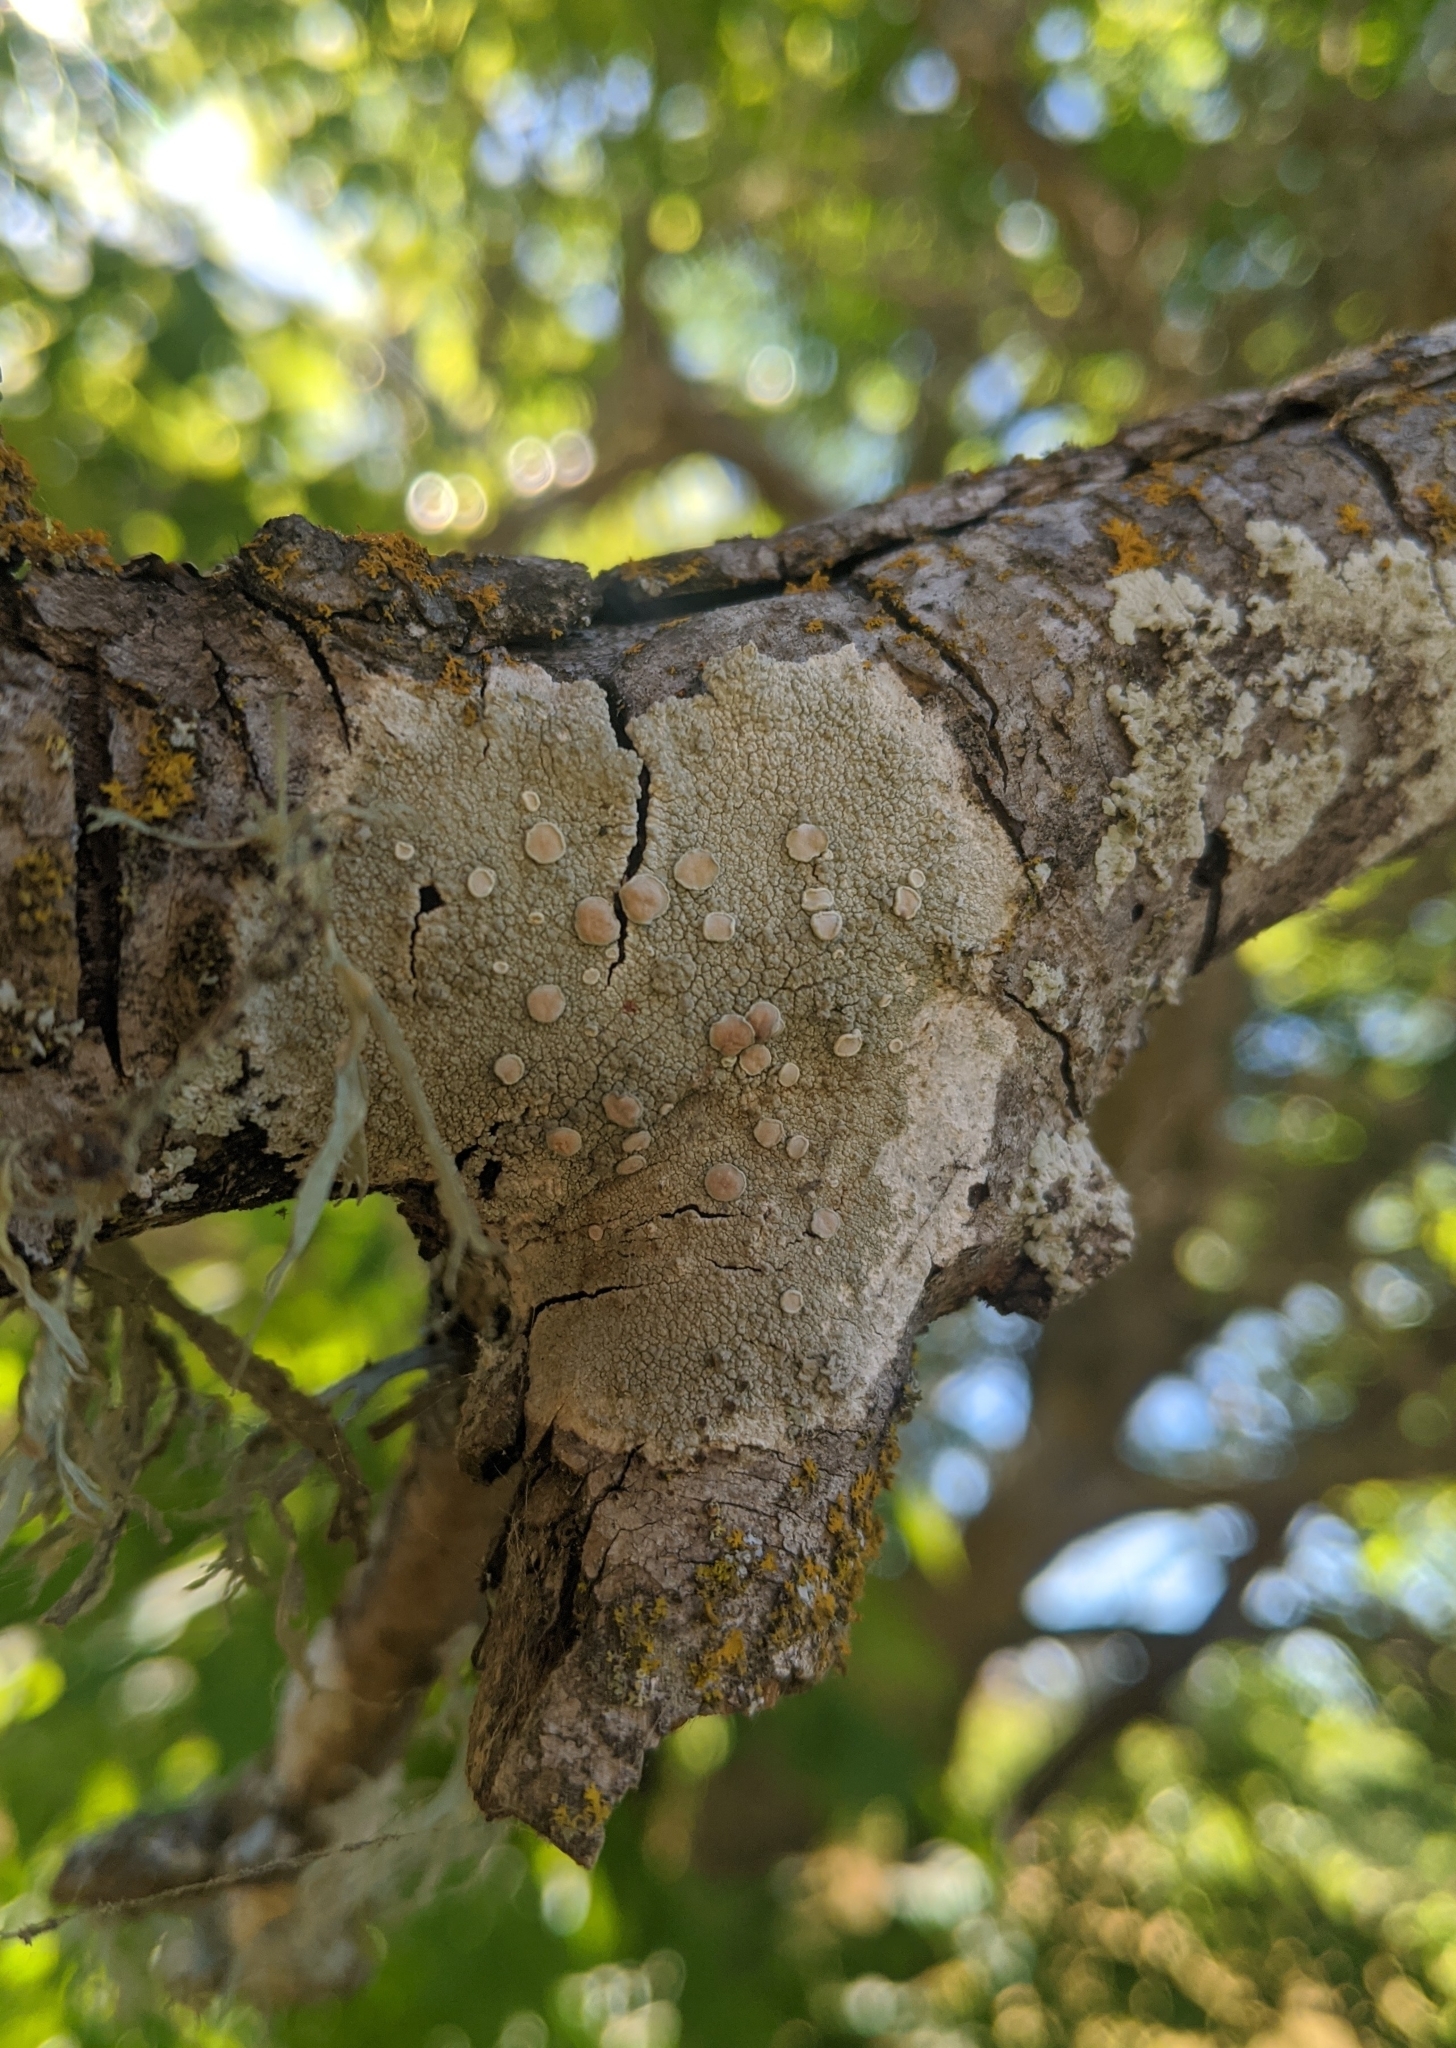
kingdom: Fungi
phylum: Ascomycota
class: Lecanoromycetes
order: Lecanorales
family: Lecanoraceae
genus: Lecanora
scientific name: Lecanora caesiorubella
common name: Frosted rim-lichen
